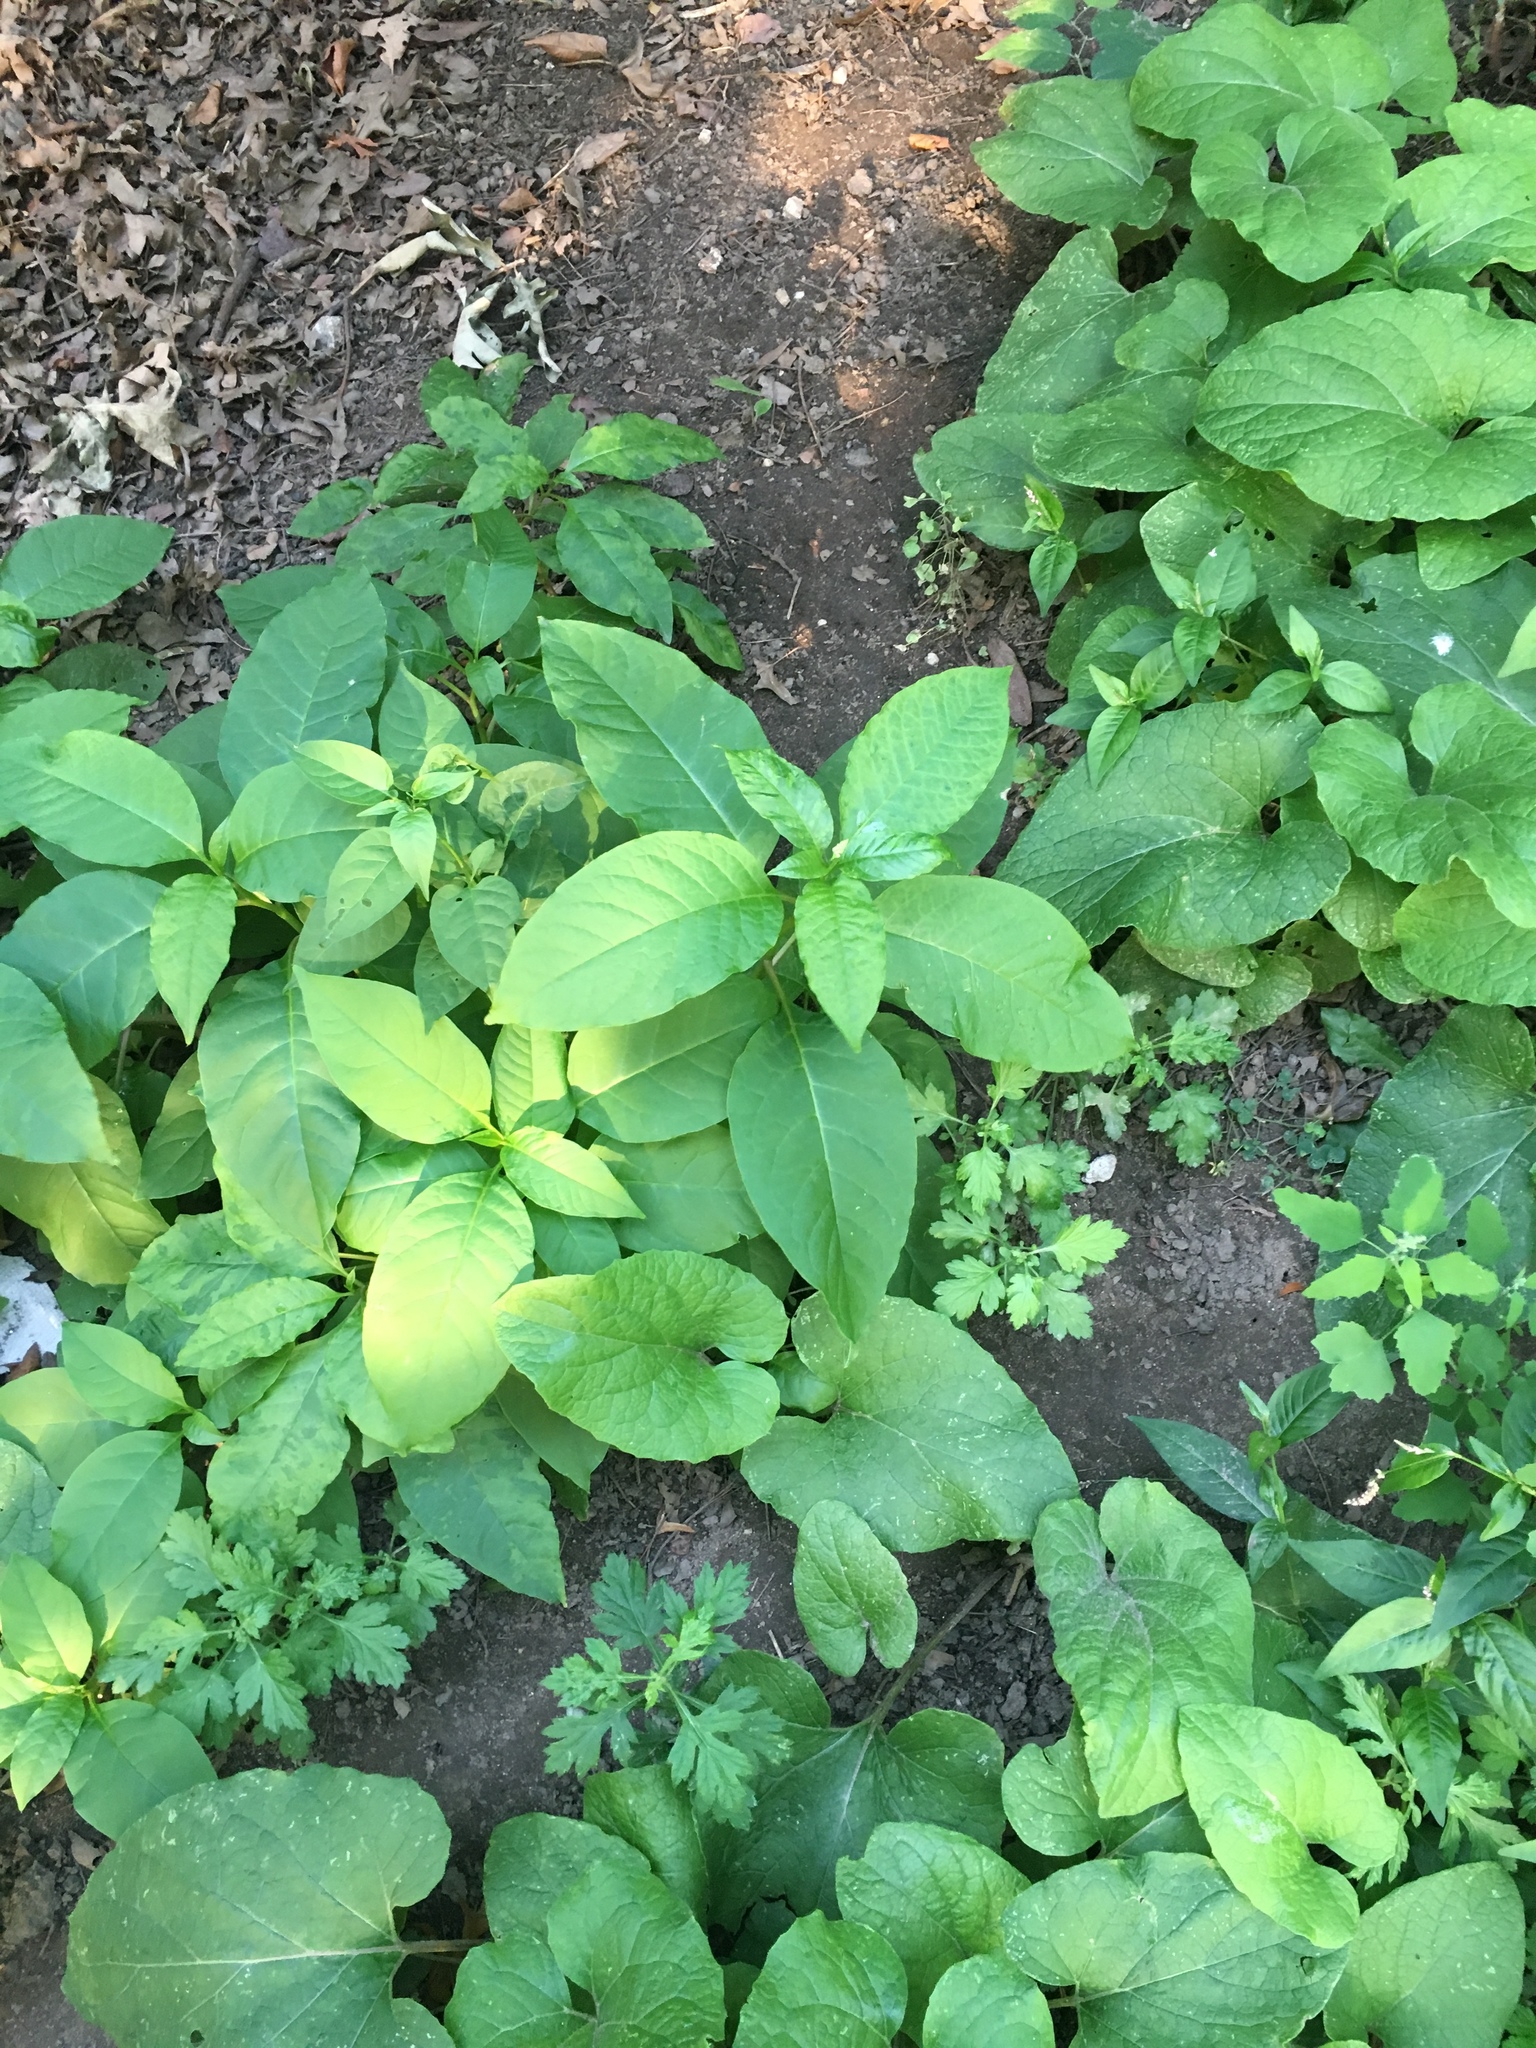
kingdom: Plantae
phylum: Tracheophyta
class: Magnoliopsida
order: Caryophyllales
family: Phytolaccaceae
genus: Phytolacca
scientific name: Phytolacca americana
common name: American pokeweed
